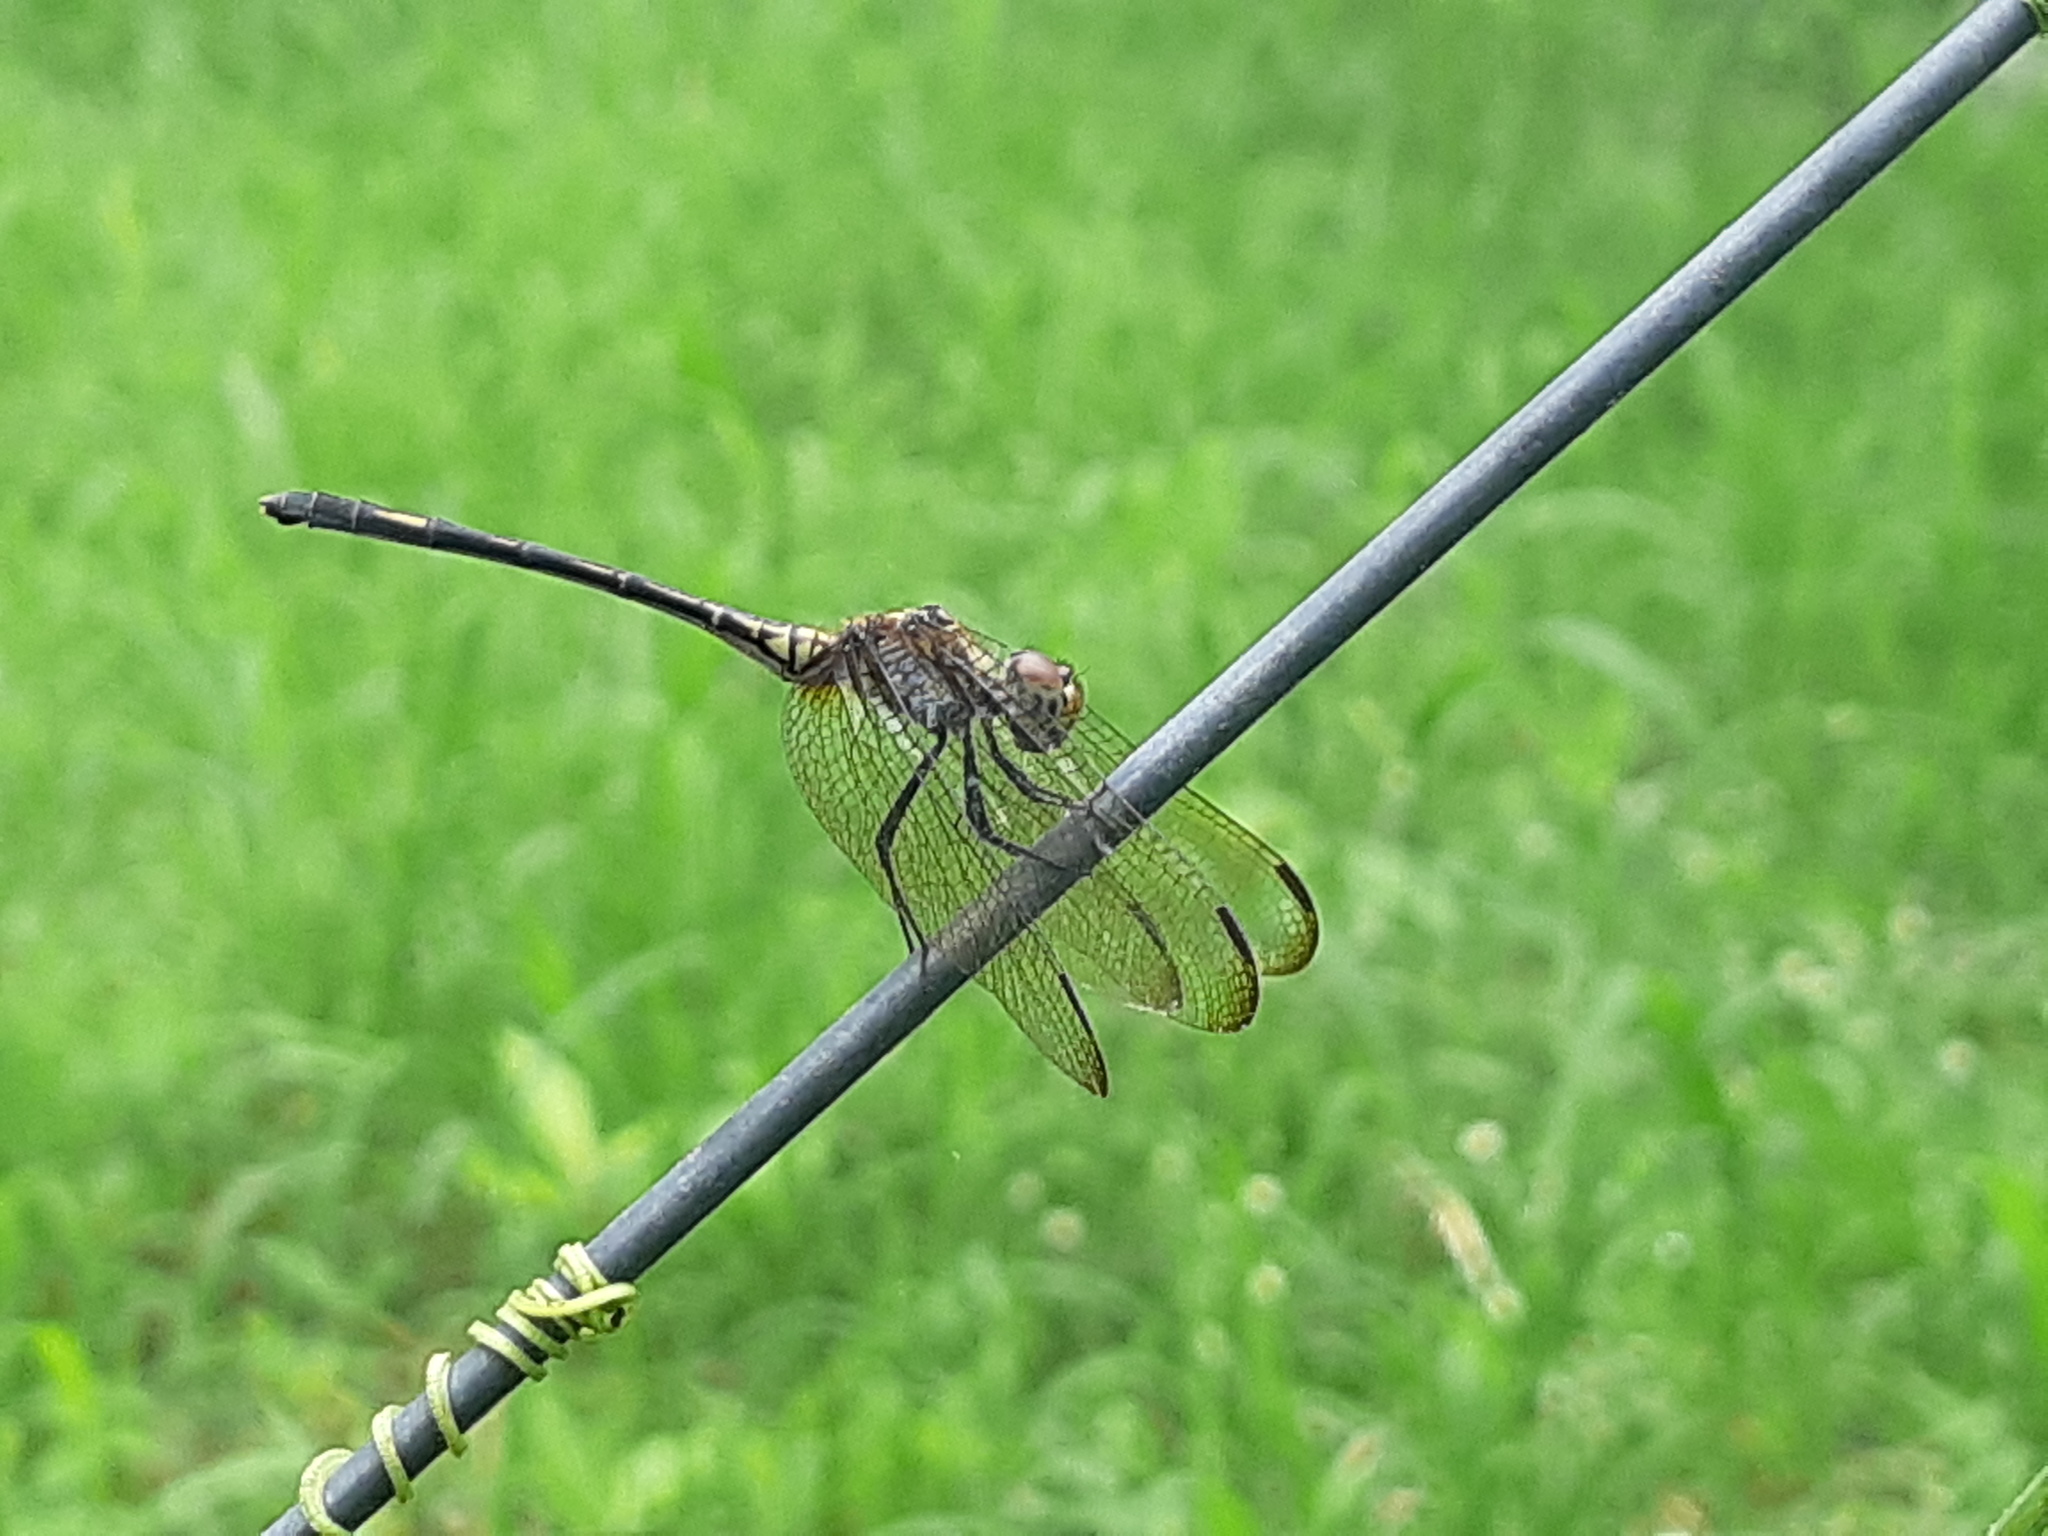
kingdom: Animalia
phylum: Arthropoda
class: Insecta
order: Odonata
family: Libellulidae
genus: Dythemis
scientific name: Dythemis sterilis
